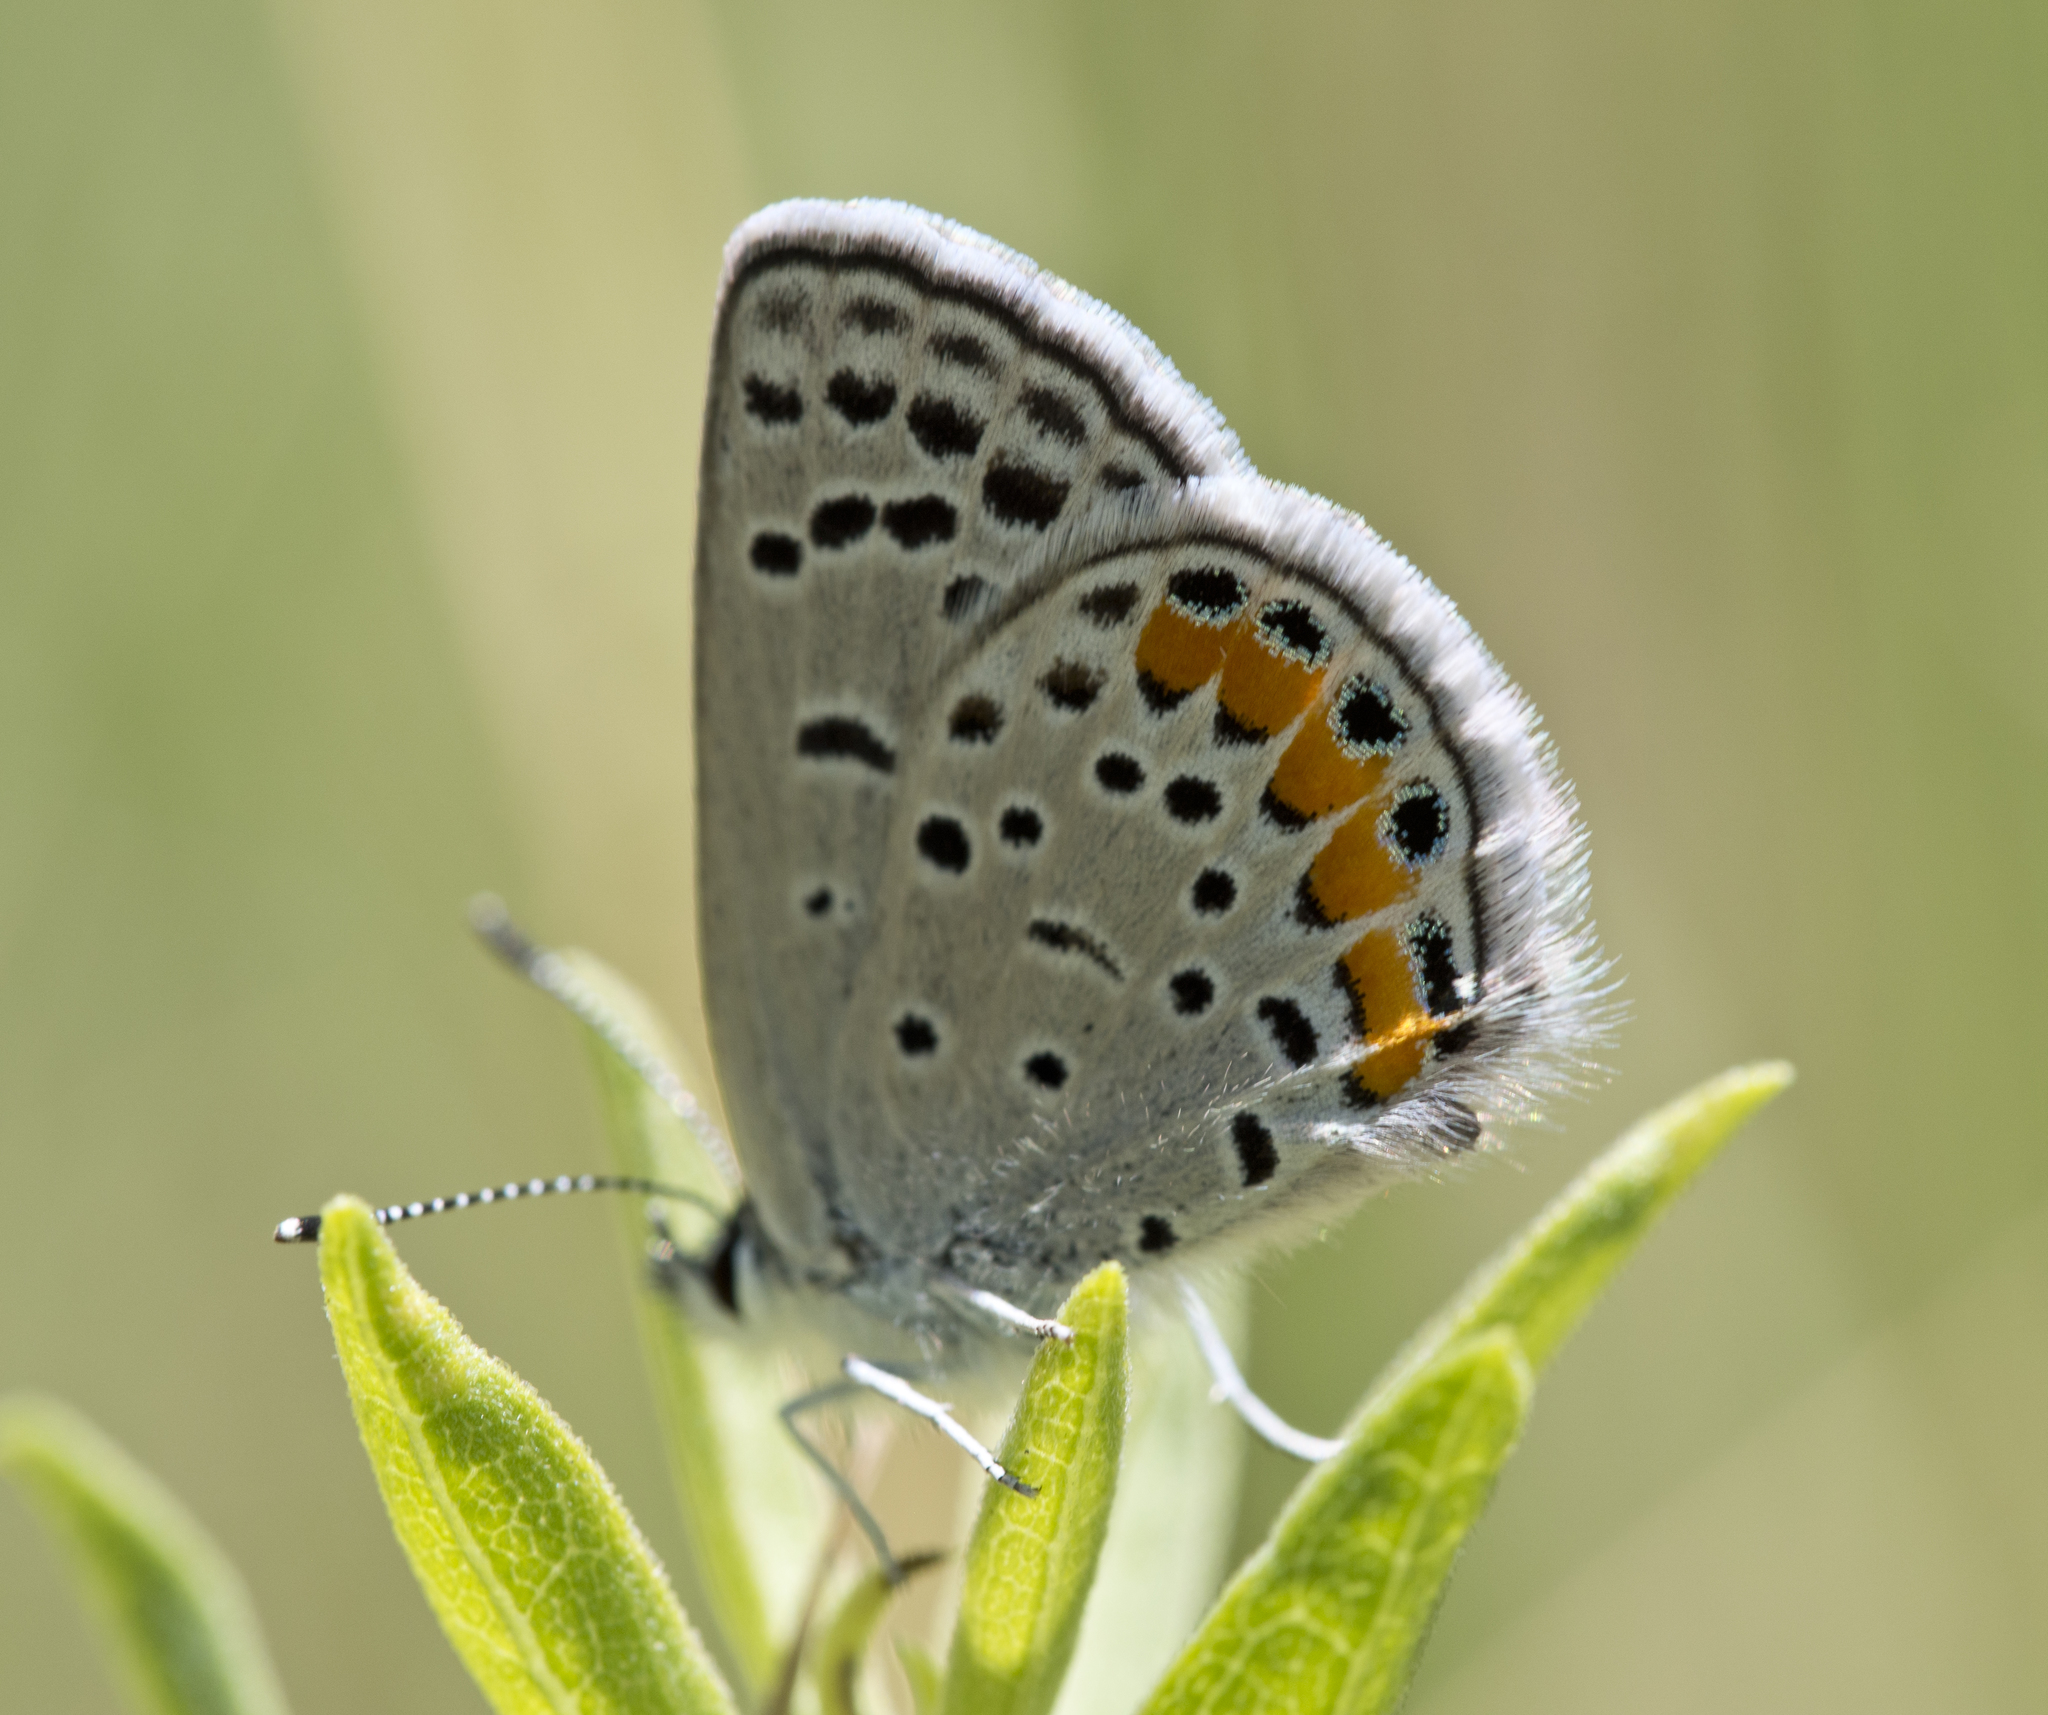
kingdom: Animalia
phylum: Arthropoda
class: Insecta
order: Lepidoptera
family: Lycaenidae
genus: Icaricia
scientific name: Icaricia lupini
